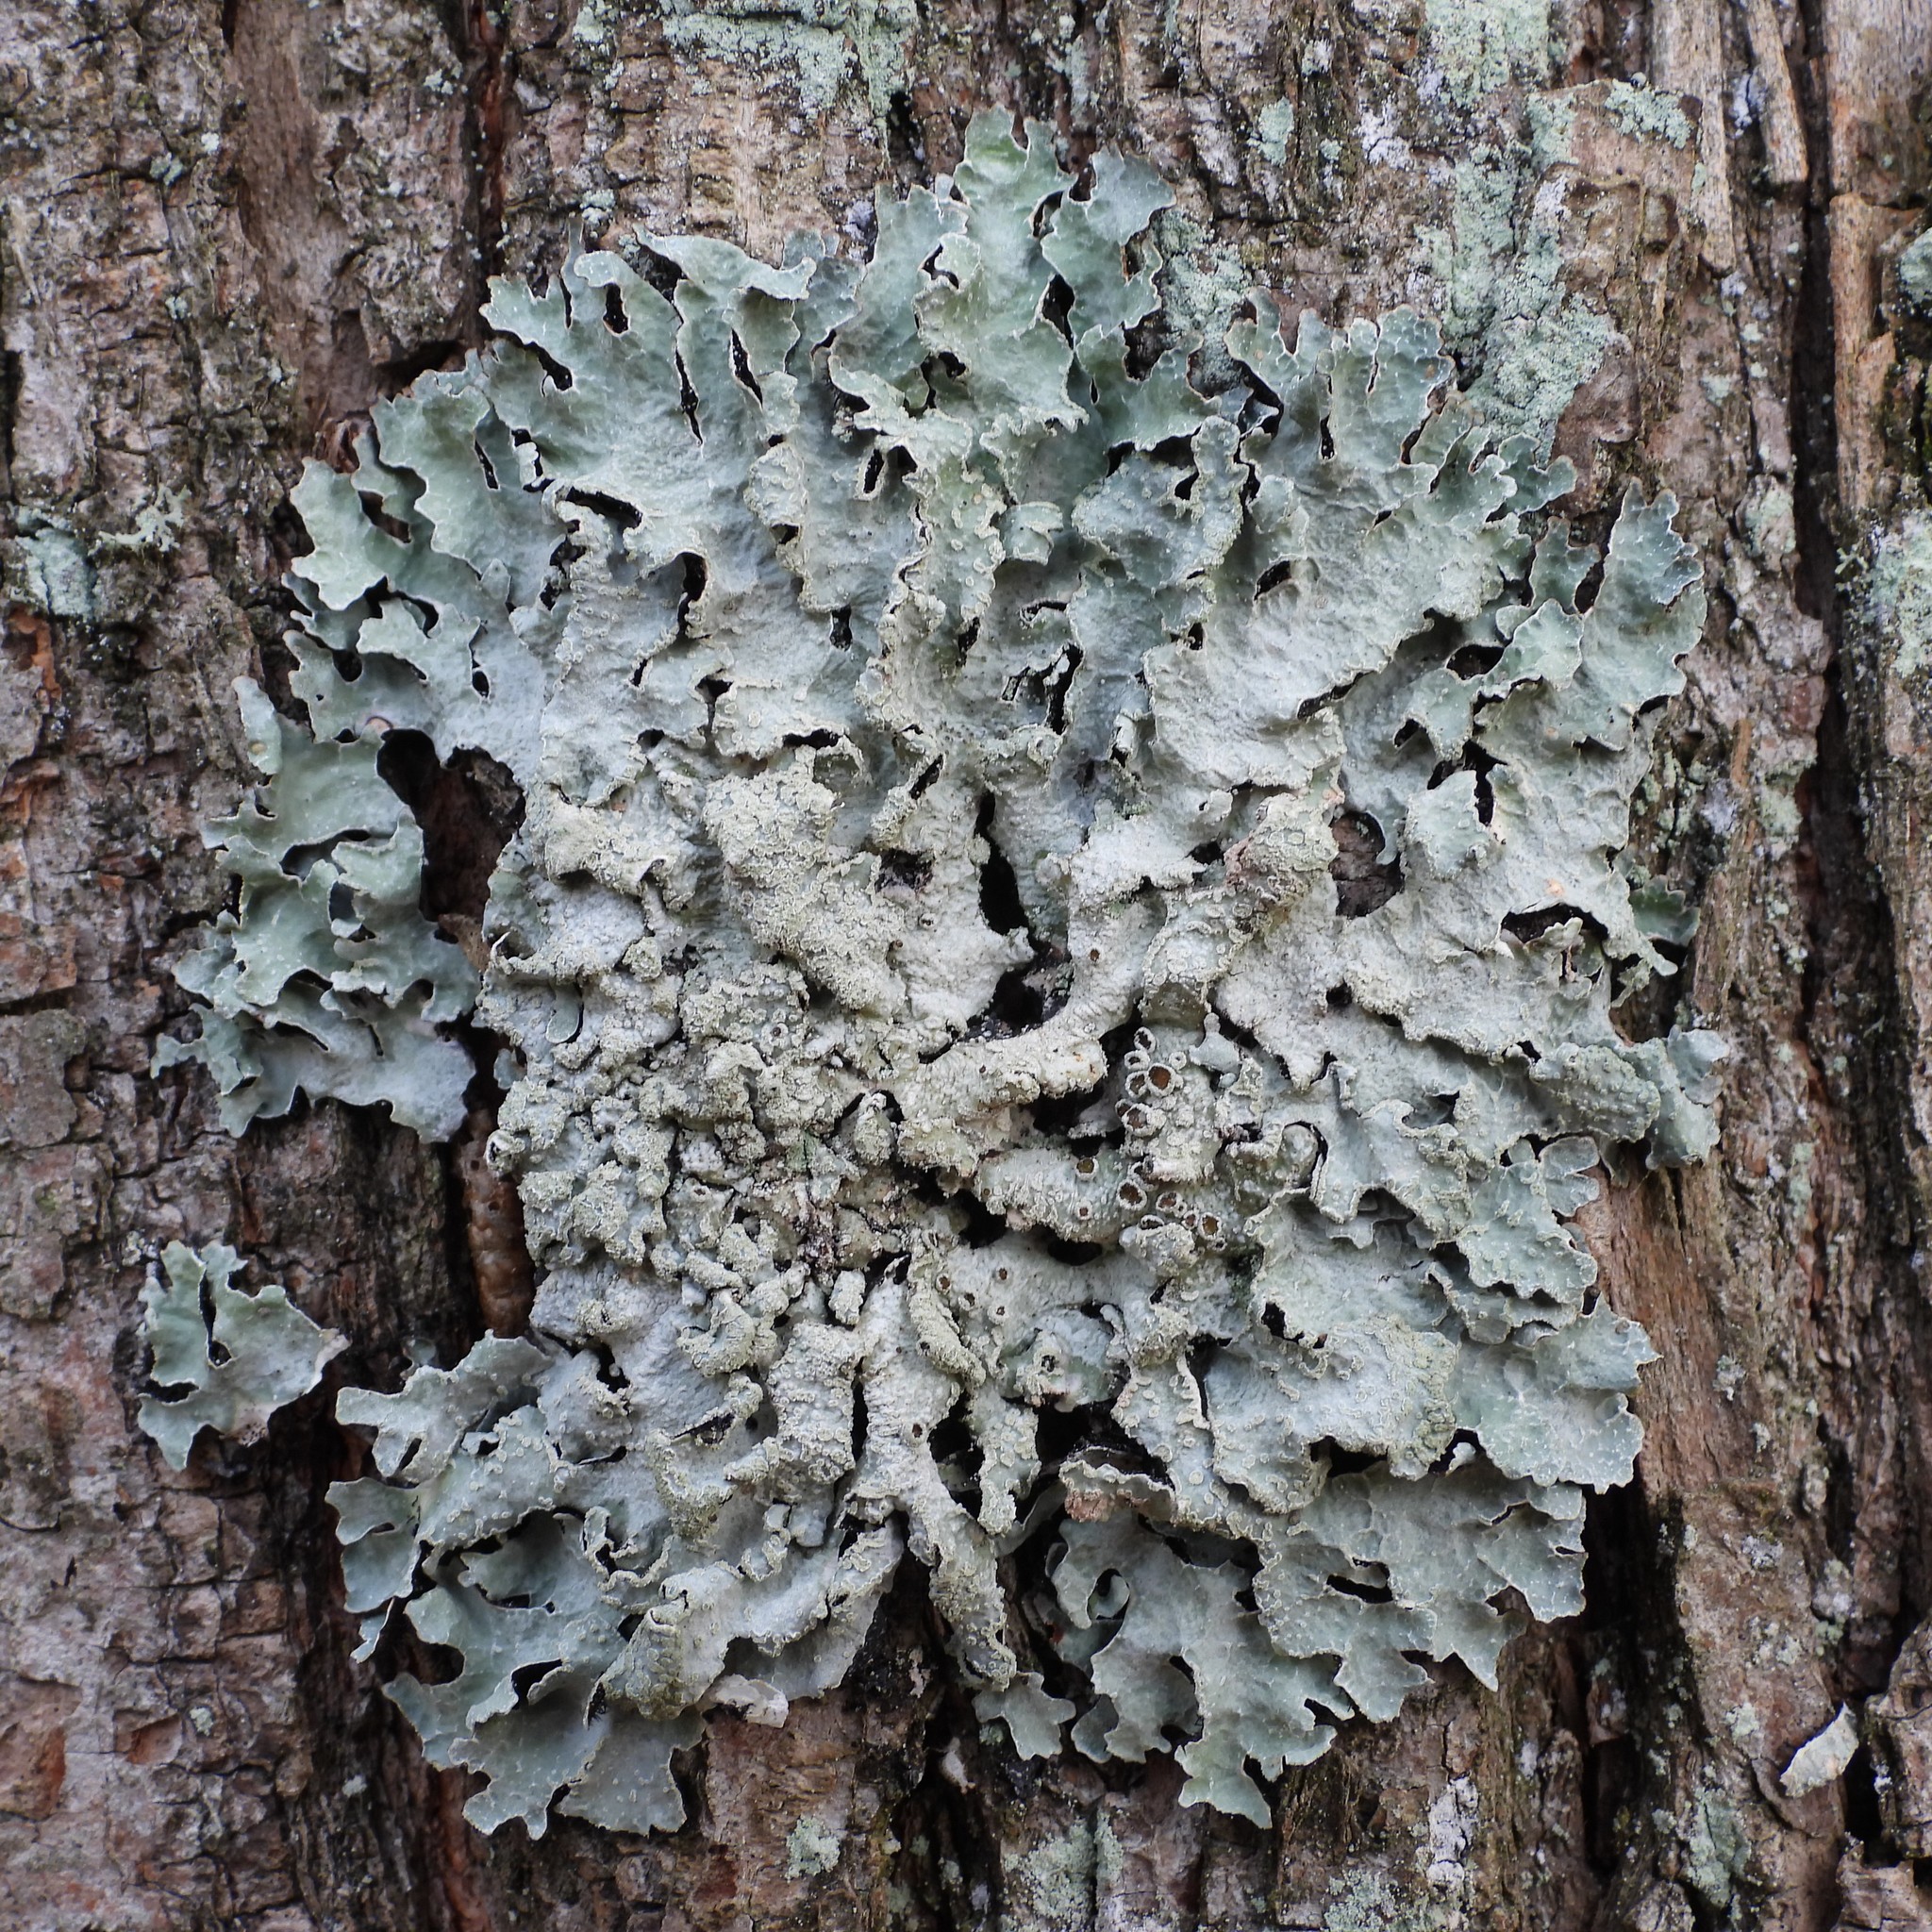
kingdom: Fungi
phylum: Ascomycota
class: Lecanoromycetes
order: Lecanorales
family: Parmeliaceae
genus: Parmelia
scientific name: Parmelia sulcata
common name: Netted shield lichen
